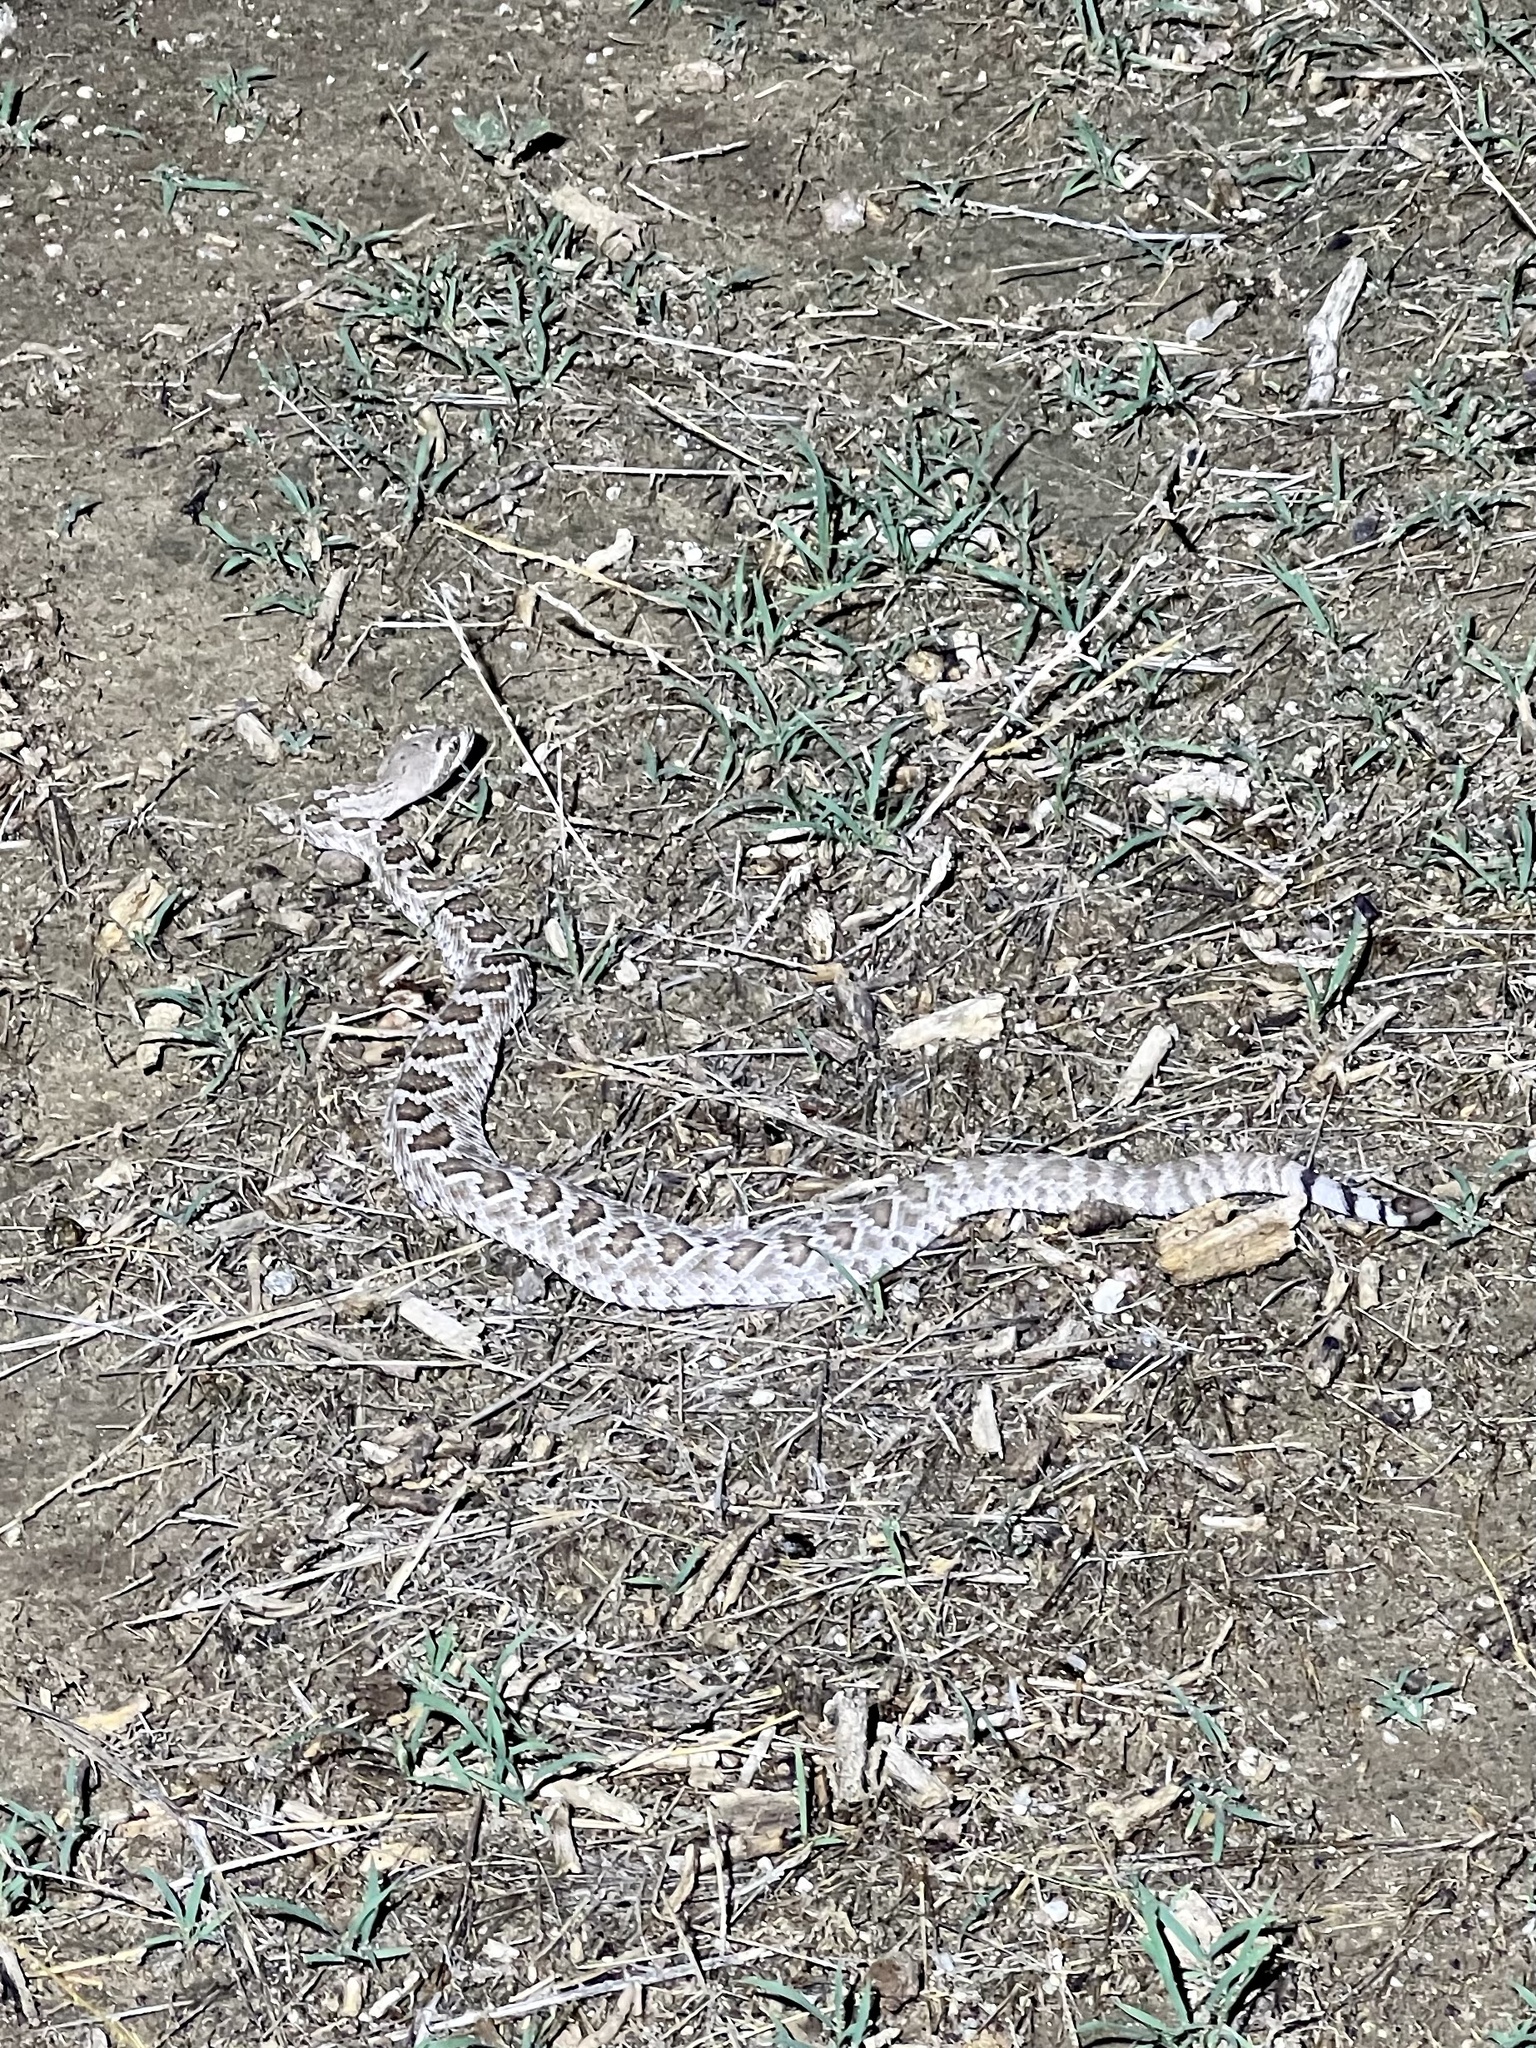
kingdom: Animalia
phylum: Chordata
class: Squamata
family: Viperidae
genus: Crotalus
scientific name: Crotalus scutulatus
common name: Scutulatus
